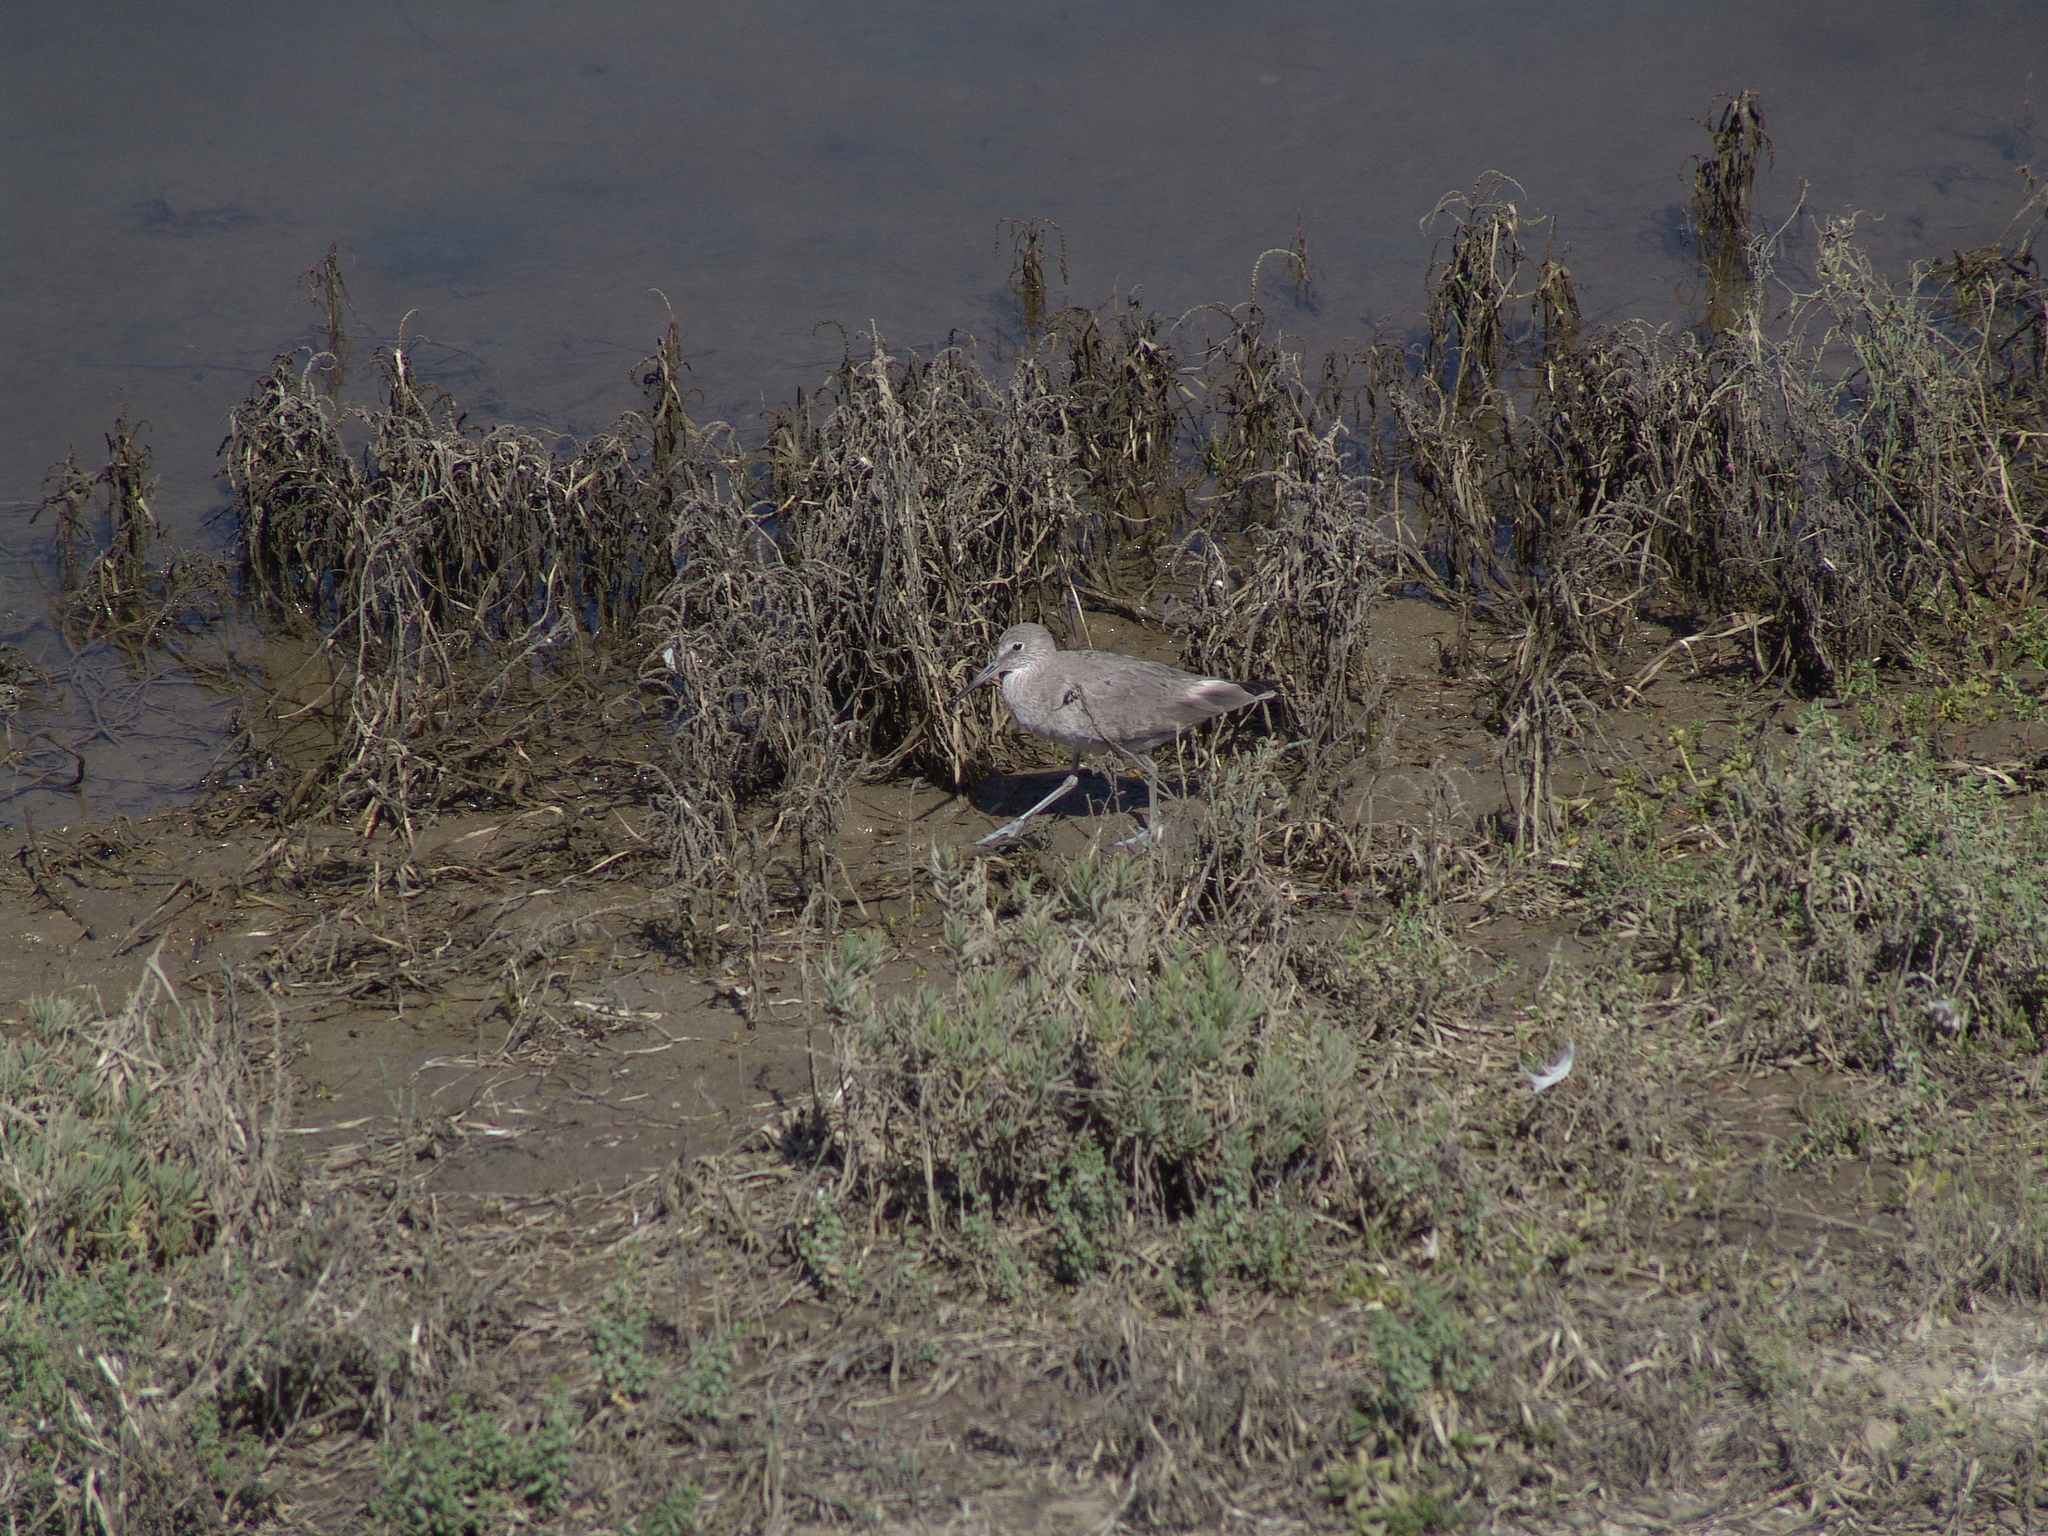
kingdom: Animalia
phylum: Chordata
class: Aves
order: Charadriiformes
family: Scolopacidae
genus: Tringa
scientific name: Tringa semipalmata
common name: Willet
